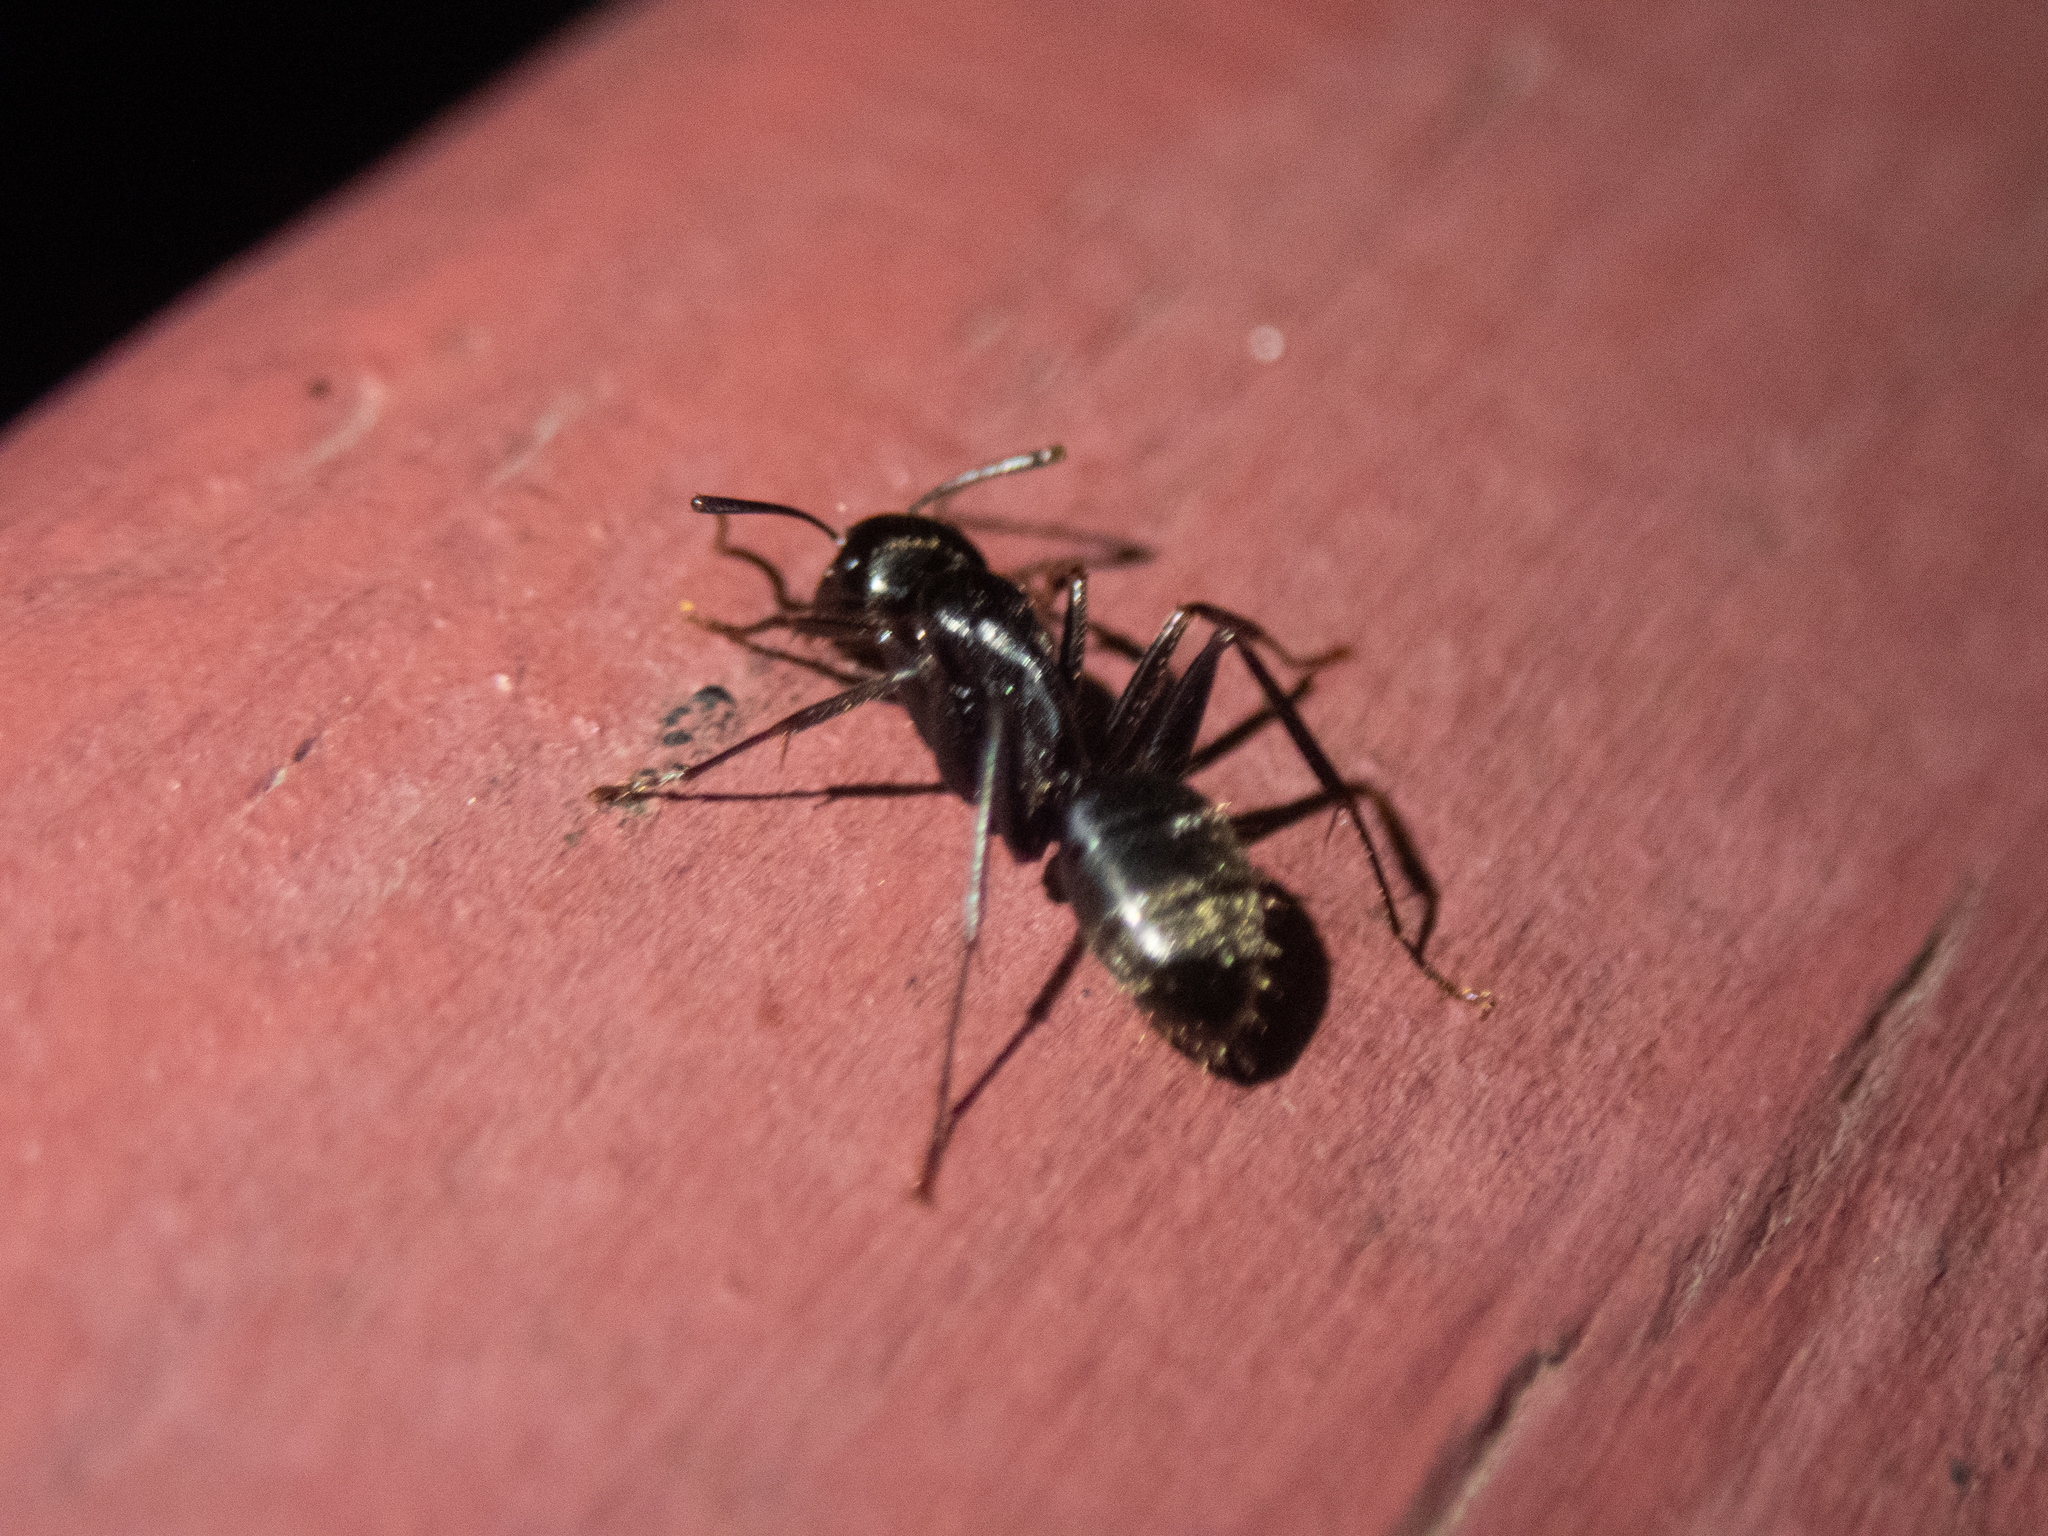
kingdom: Animalia
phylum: Arthropoda
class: Insecta
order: Hymenoptera
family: Formicidae
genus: Camponotus
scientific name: Camponotus pennsylvanicus
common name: Black carpenter ant
